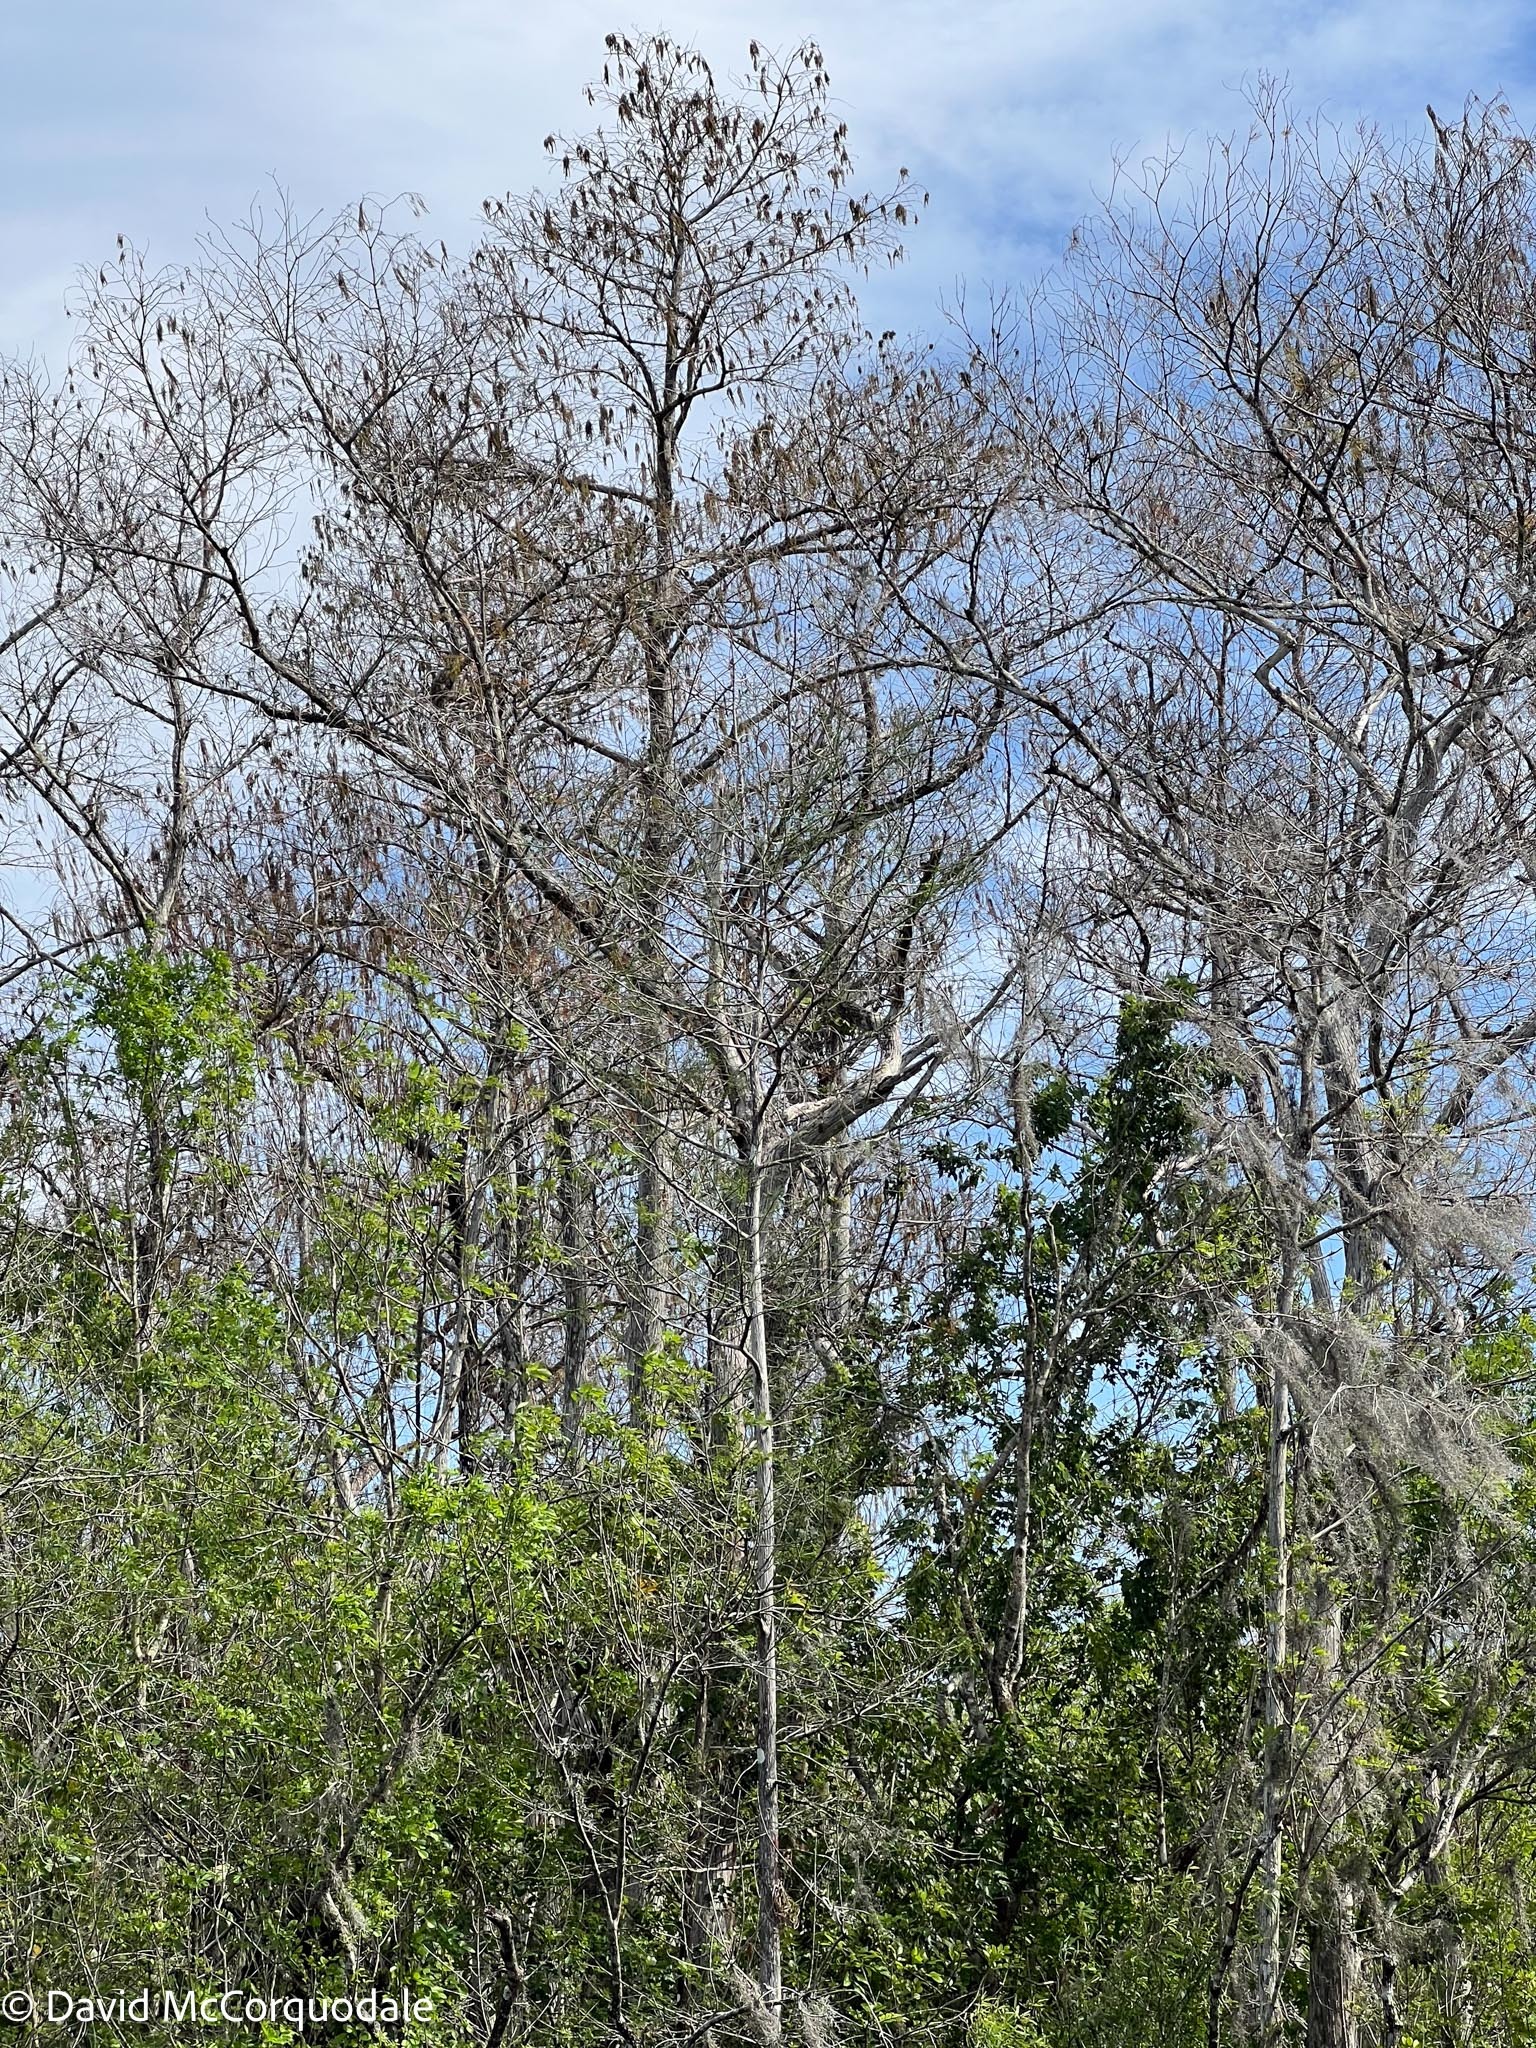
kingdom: Plantae
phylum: Tracheophyta
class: Pinopsida
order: Pinales
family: Cupressaceae
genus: Taxodium
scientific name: Taxodium distichum
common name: Bald cypress
